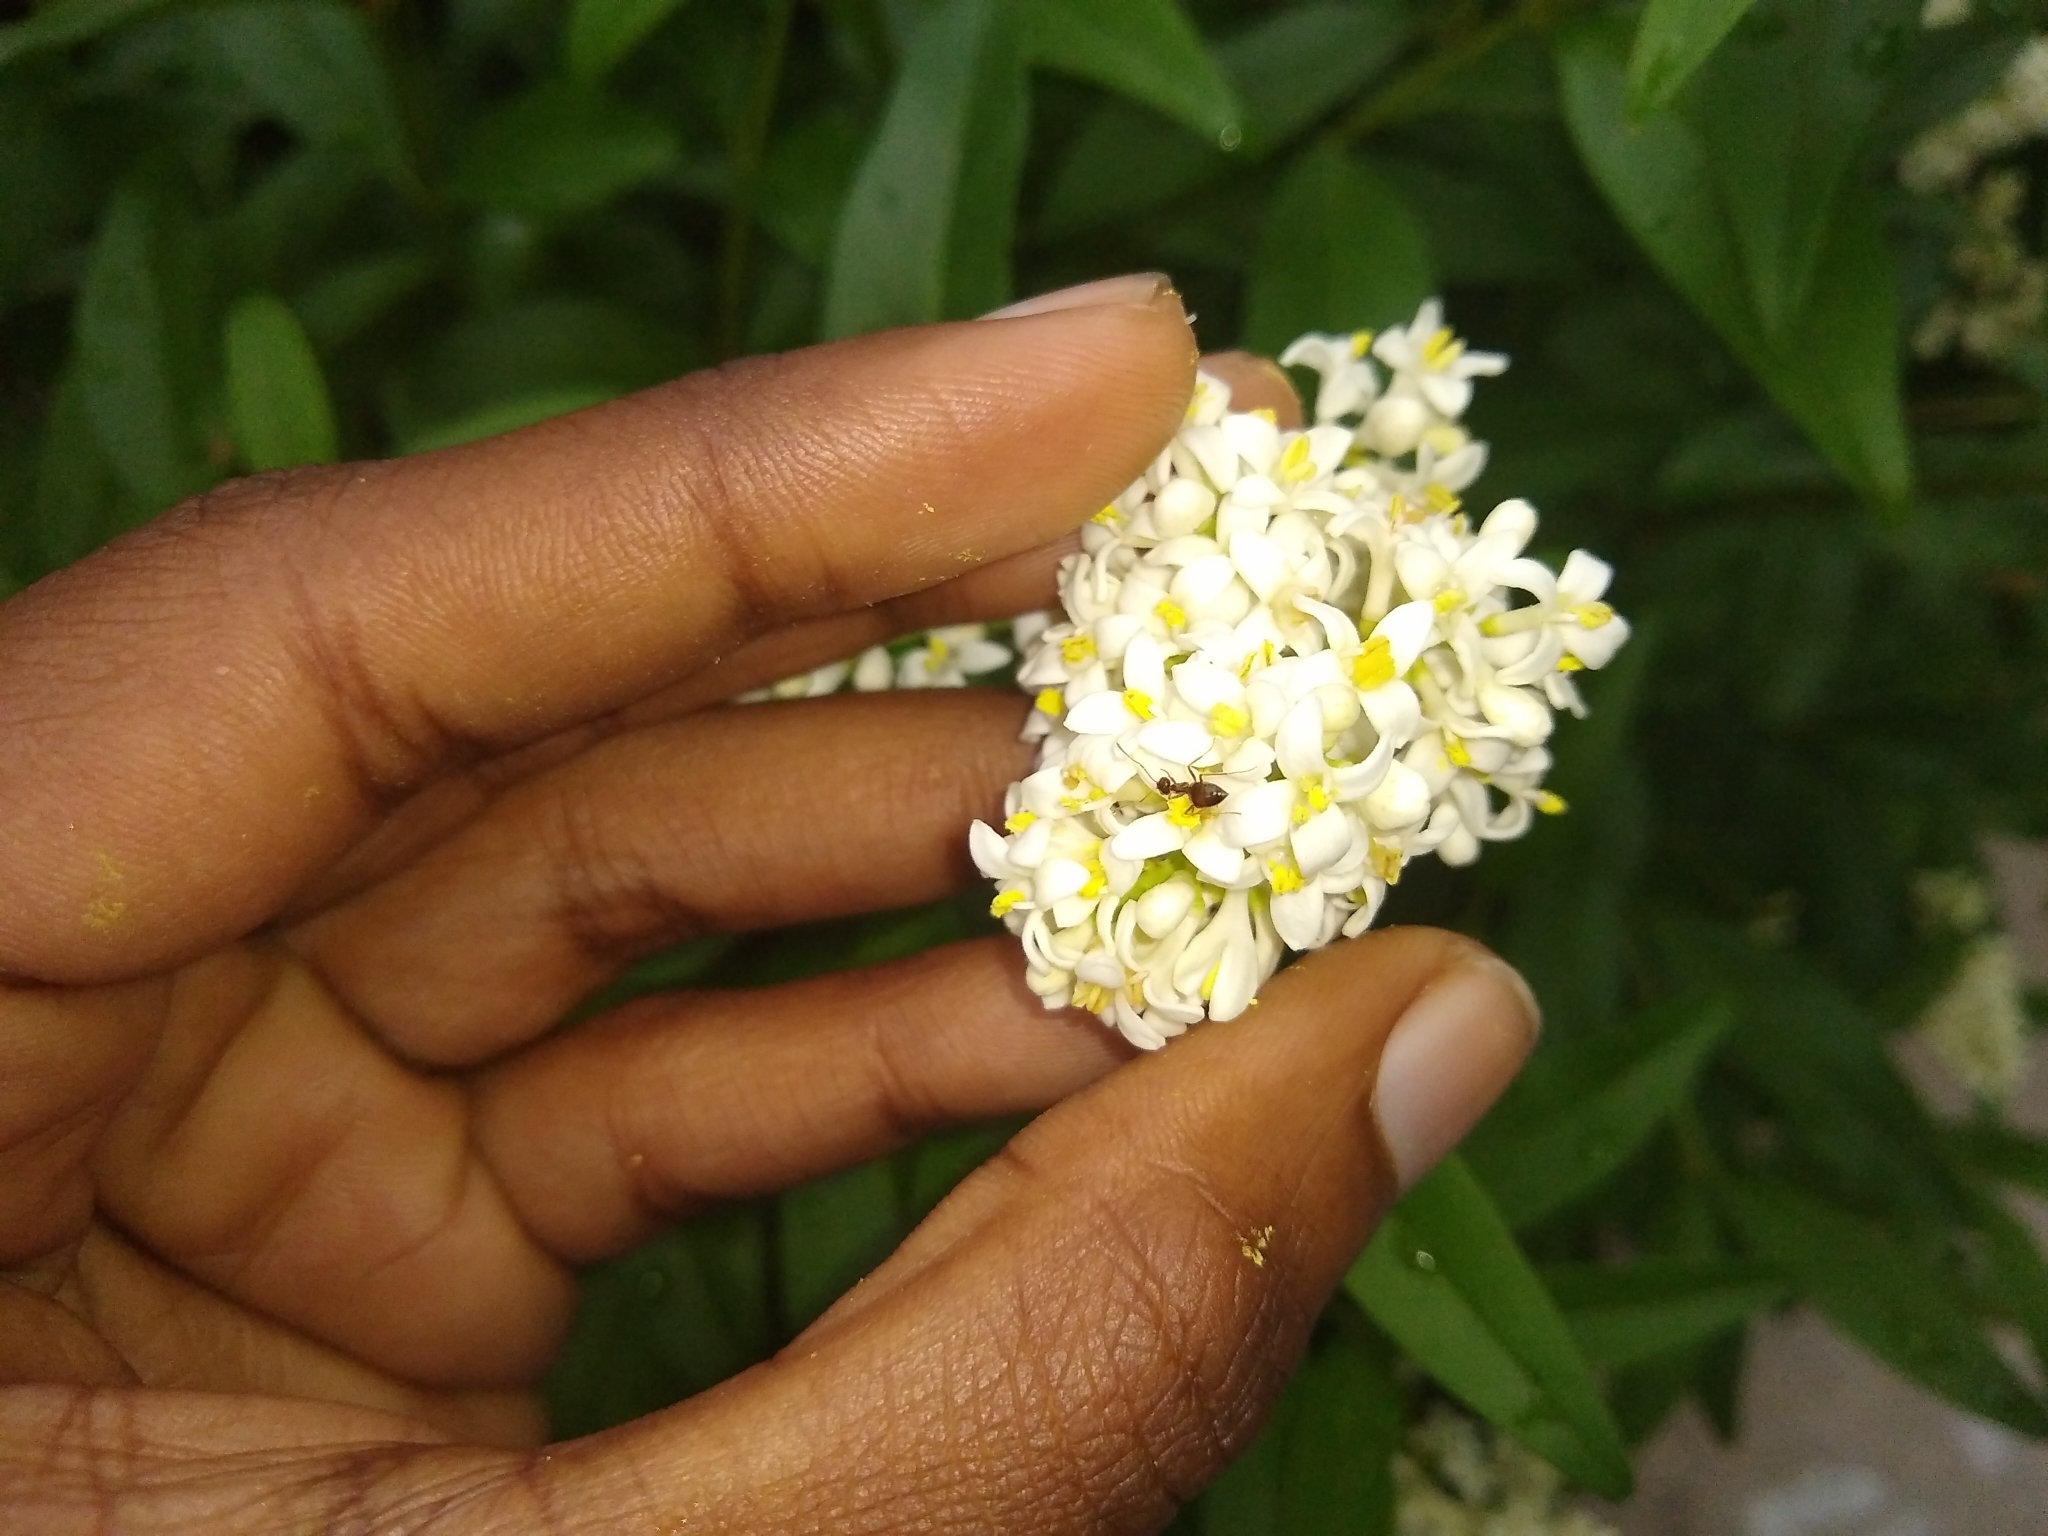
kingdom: Animalia
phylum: Arthropoda
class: Insecta
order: Hymenoptera
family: Formicidae
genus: Prenolepis
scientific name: Prenolepis imparis
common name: Small honey ant
